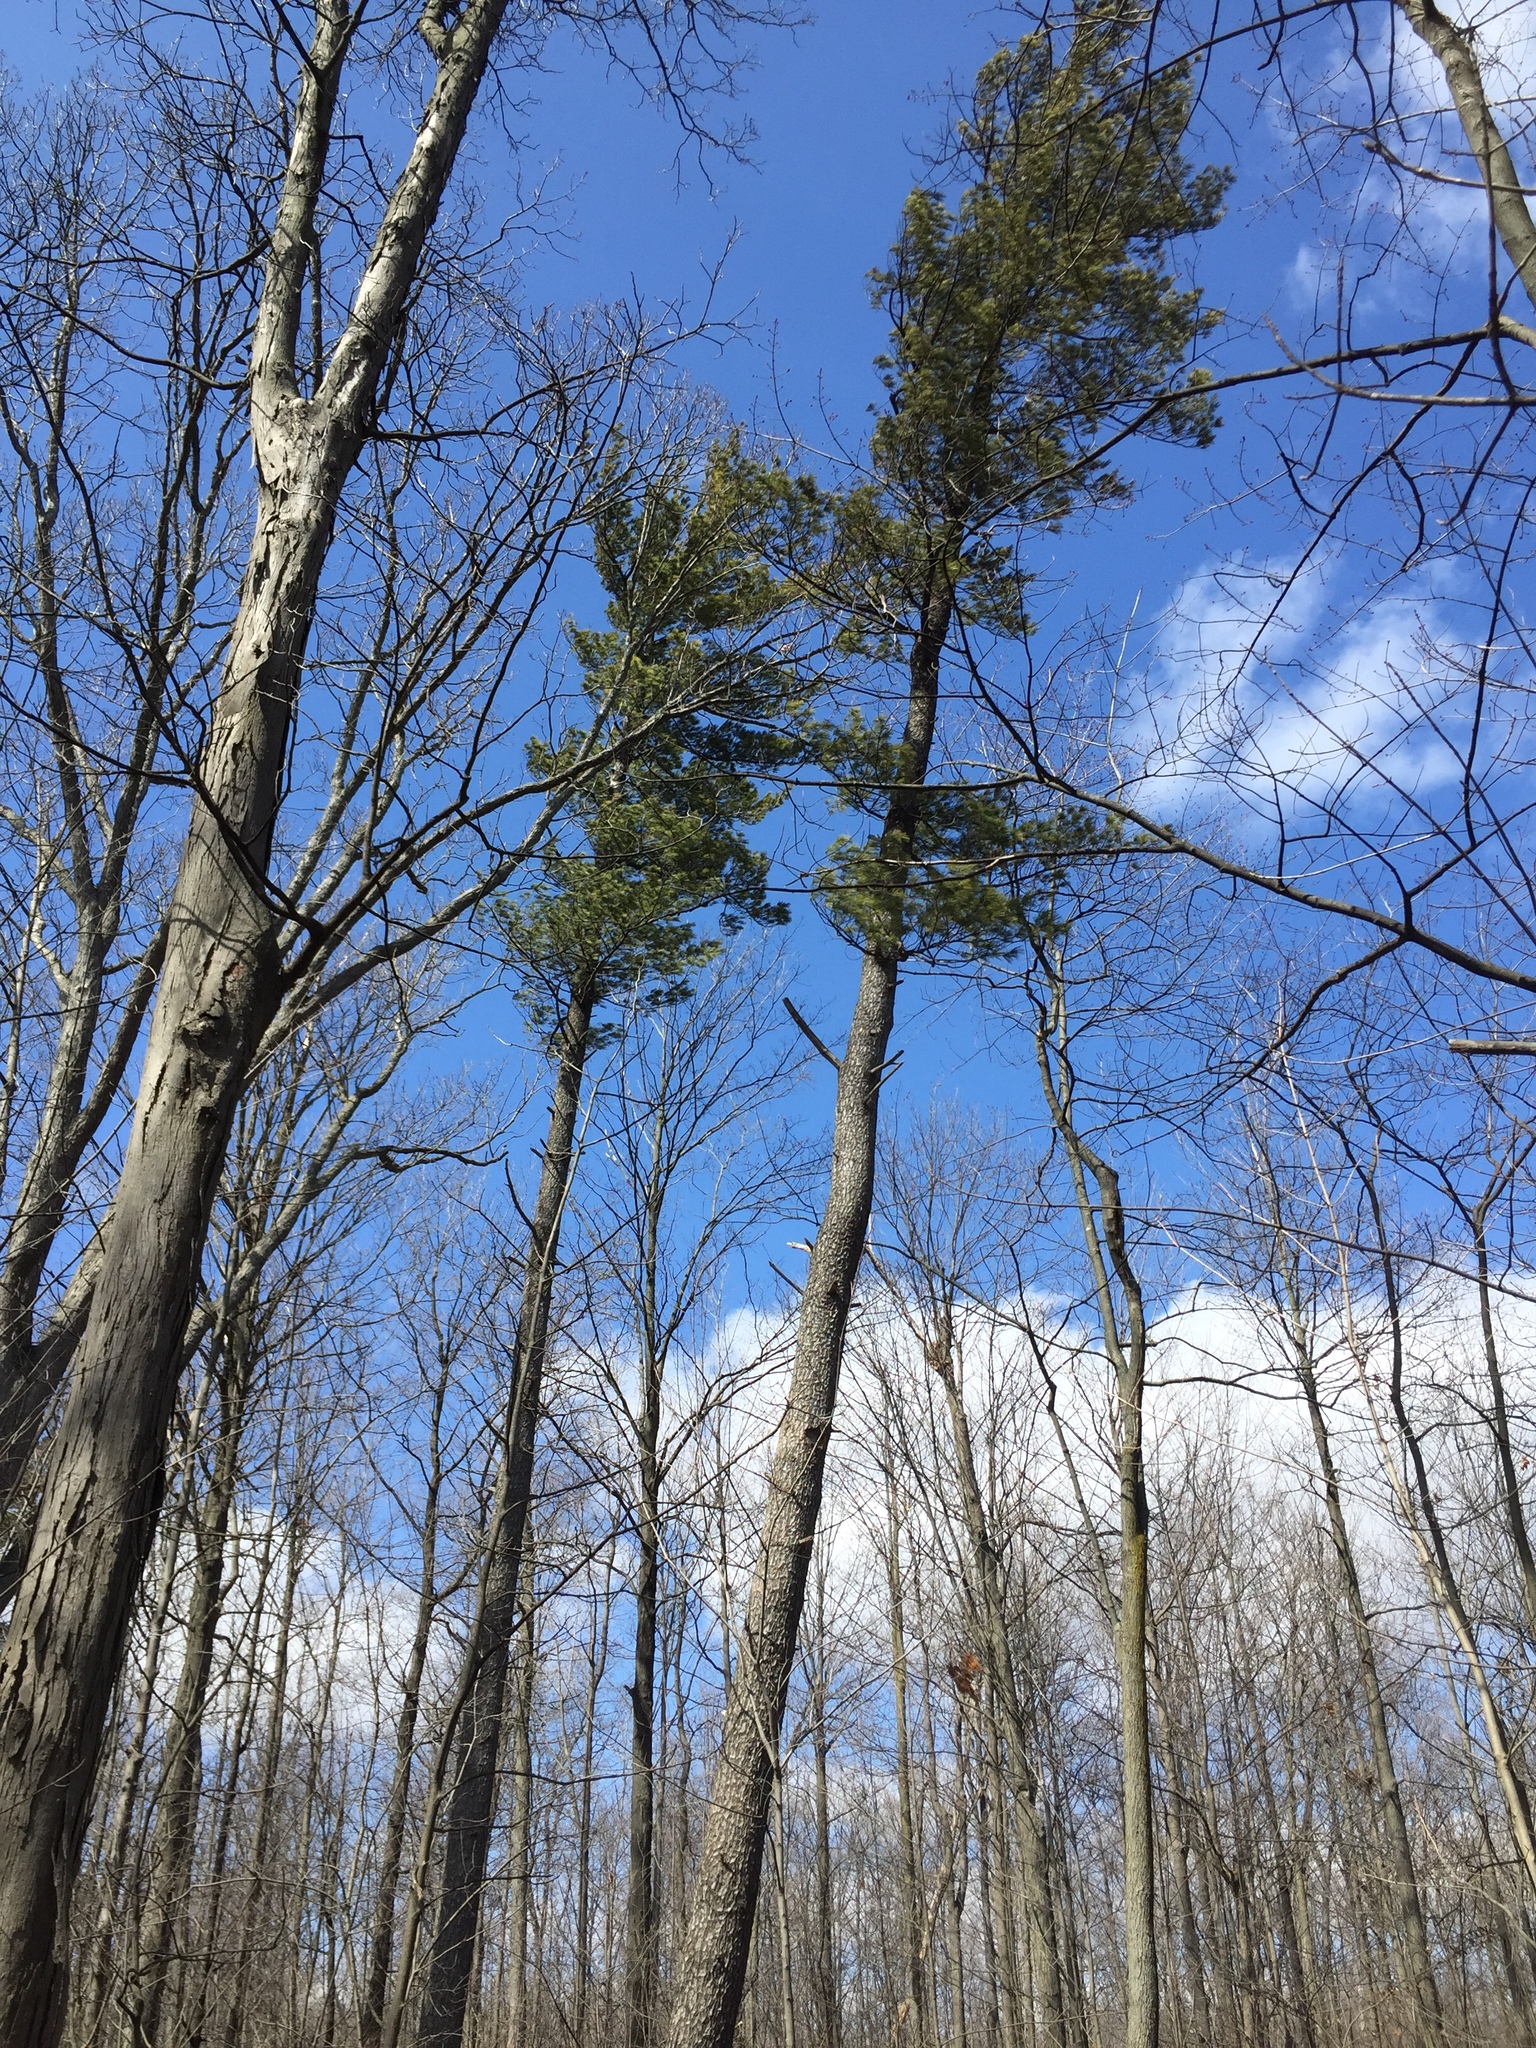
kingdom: Plantae
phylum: Tracheophyta
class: Pinopsida
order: Pinales
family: Pinaceae
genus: Pinus
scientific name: Pinus strobus
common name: Weymouth pine
